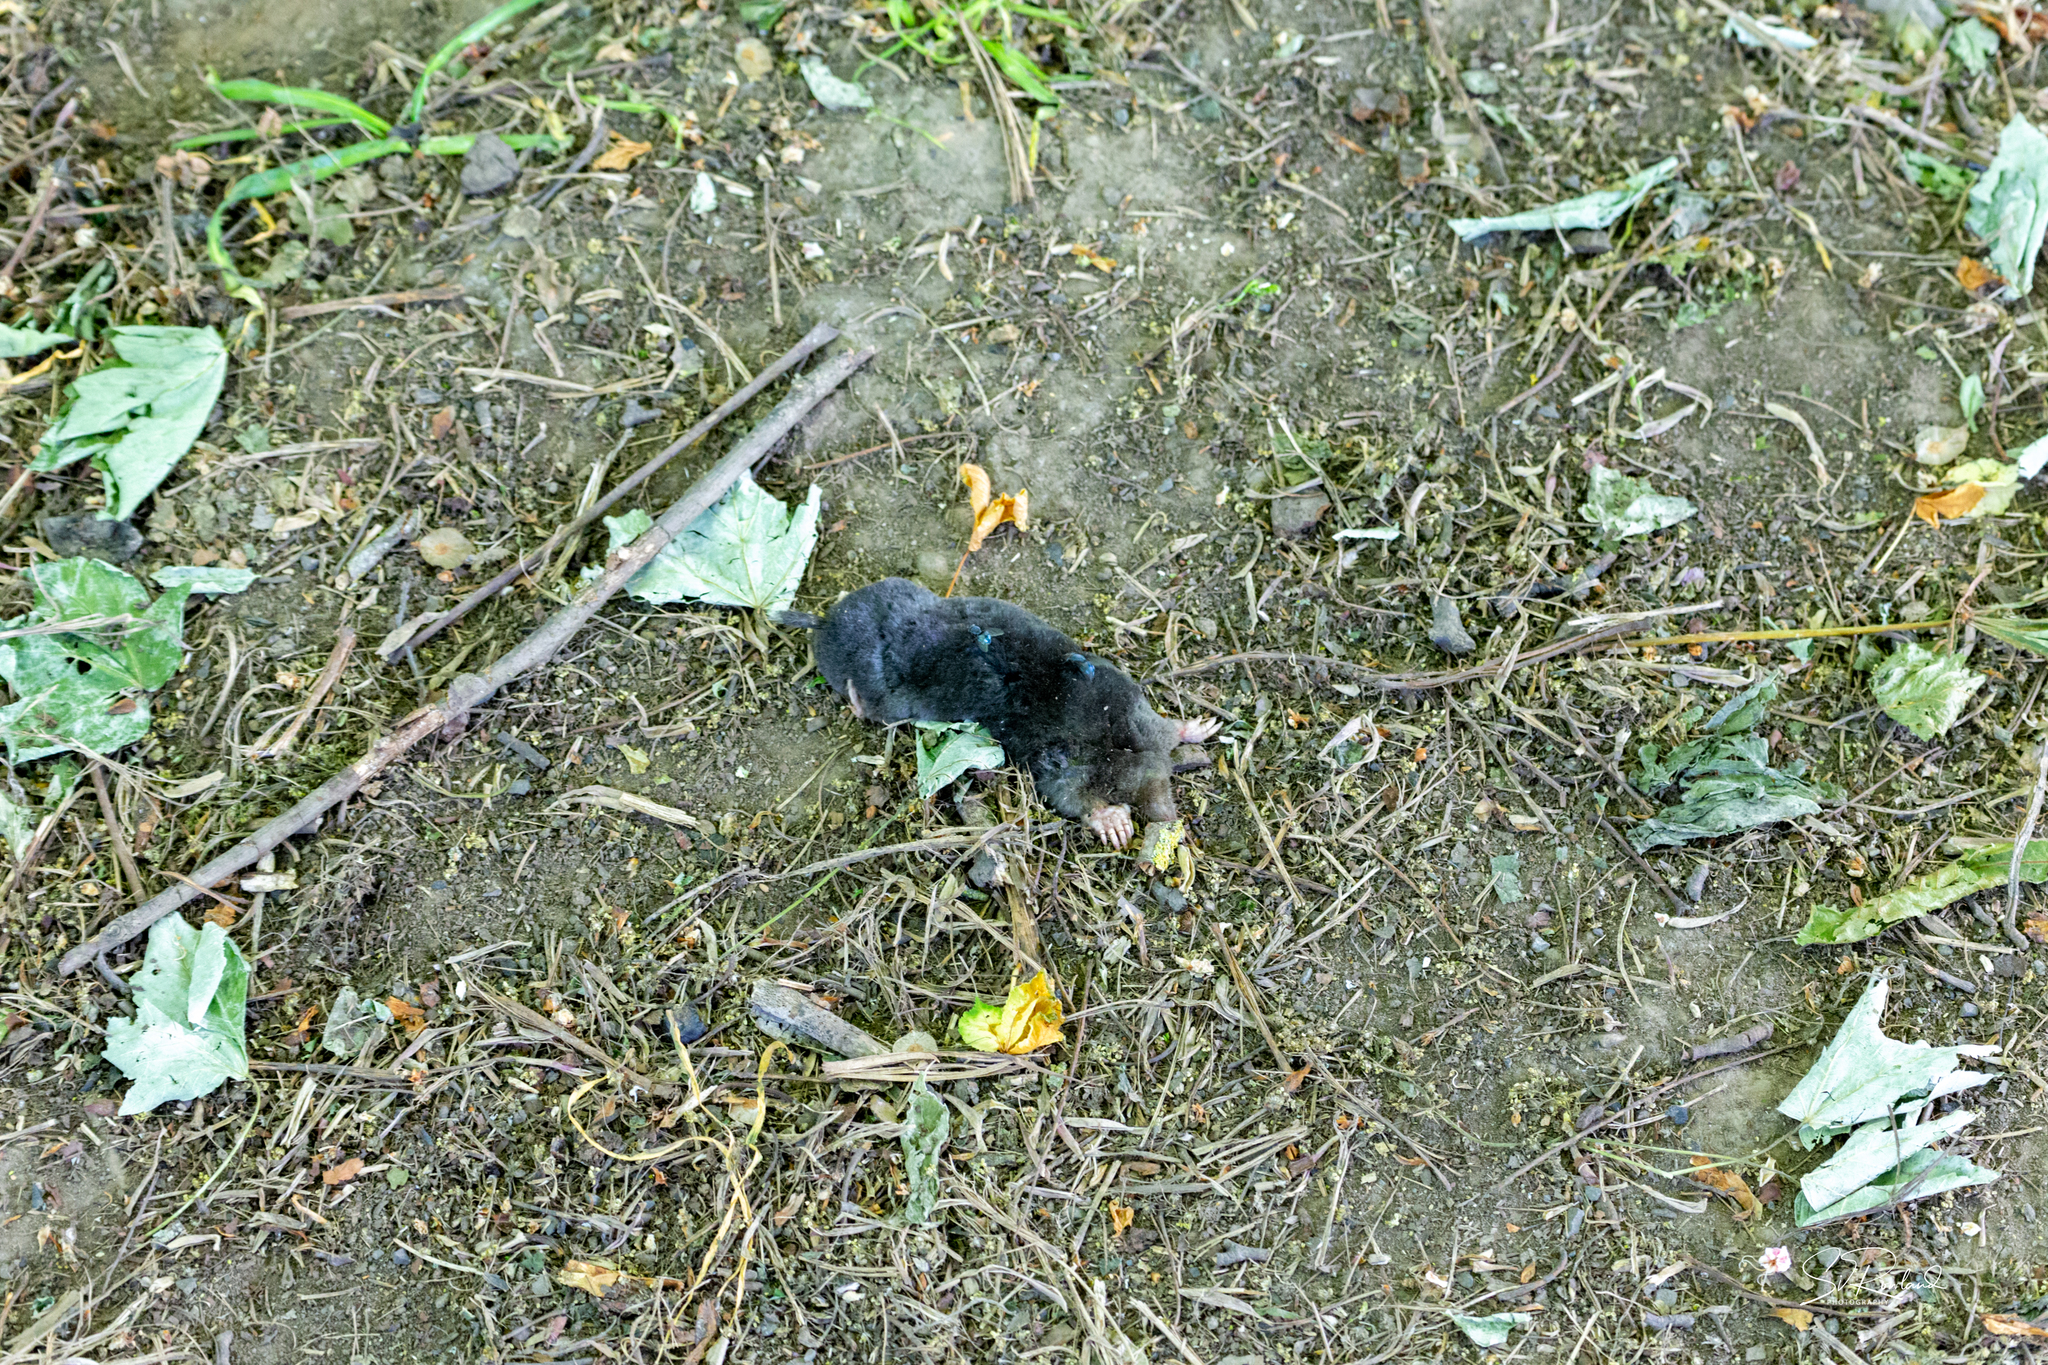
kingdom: Animalia
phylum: Chordata
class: Mammalia
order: Soricomorpha
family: Talpidae
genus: Talpa
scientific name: Talpa europaea
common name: European mole
